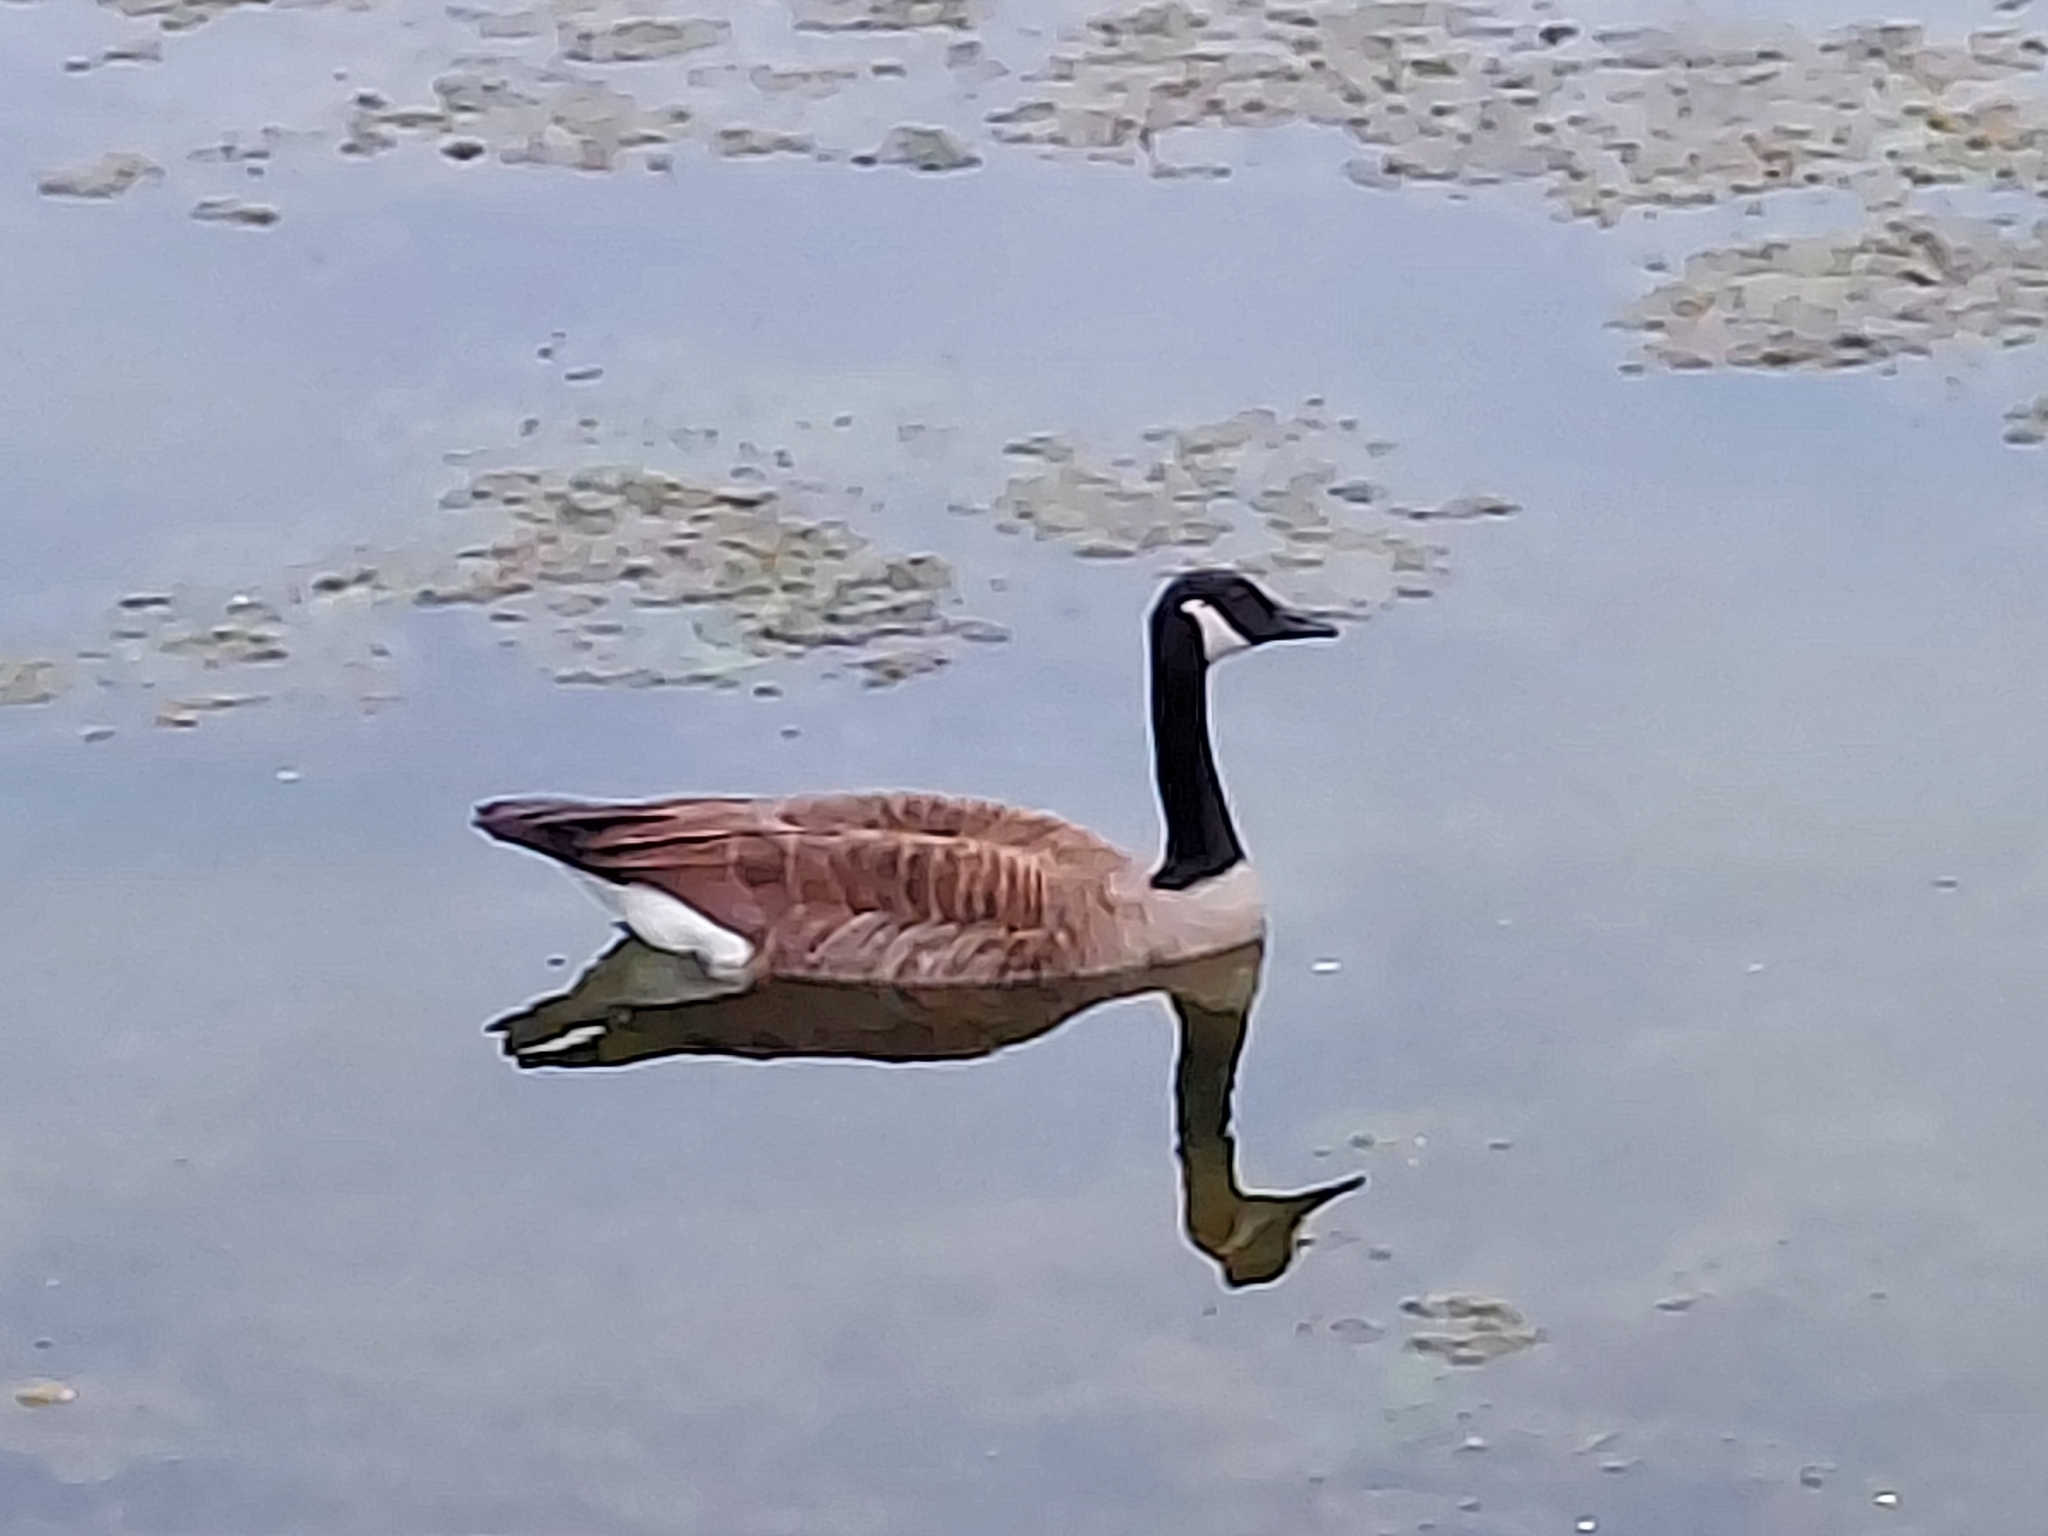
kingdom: Animalia
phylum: Chordata
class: Aves
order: Anseriformes
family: Anatidae
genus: Branta
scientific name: Branta canadensis
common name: Canada goose
